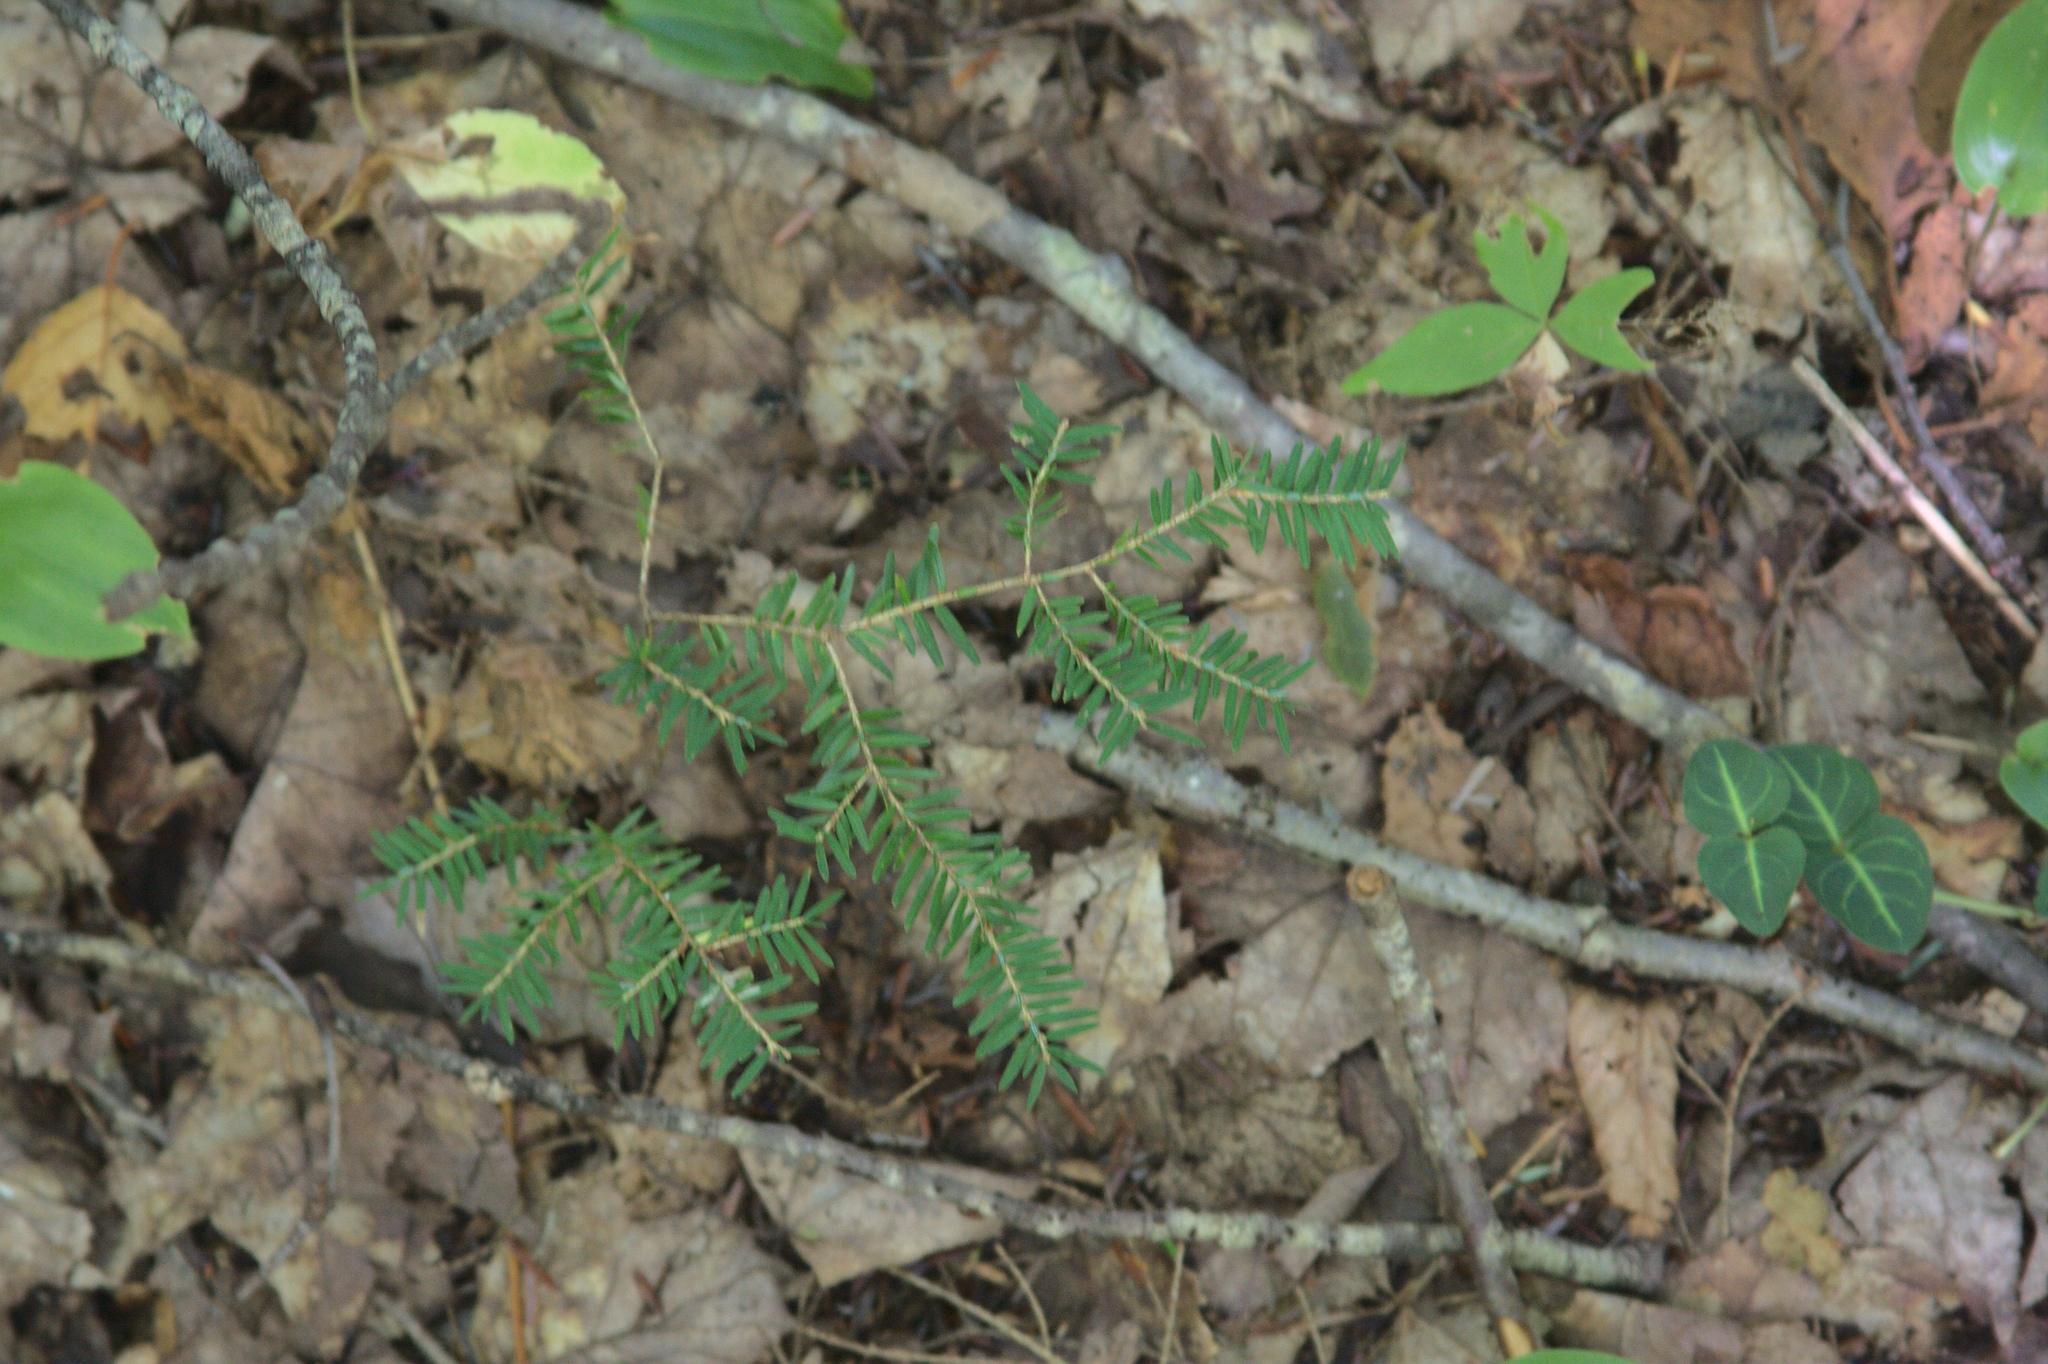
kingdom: Plantae
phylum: Tracheophyta
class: Magnoliopsida
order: Gentianales
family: Rubiaceae
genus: Mitchella
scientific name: Mitchella repens
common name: Partridge-berry
